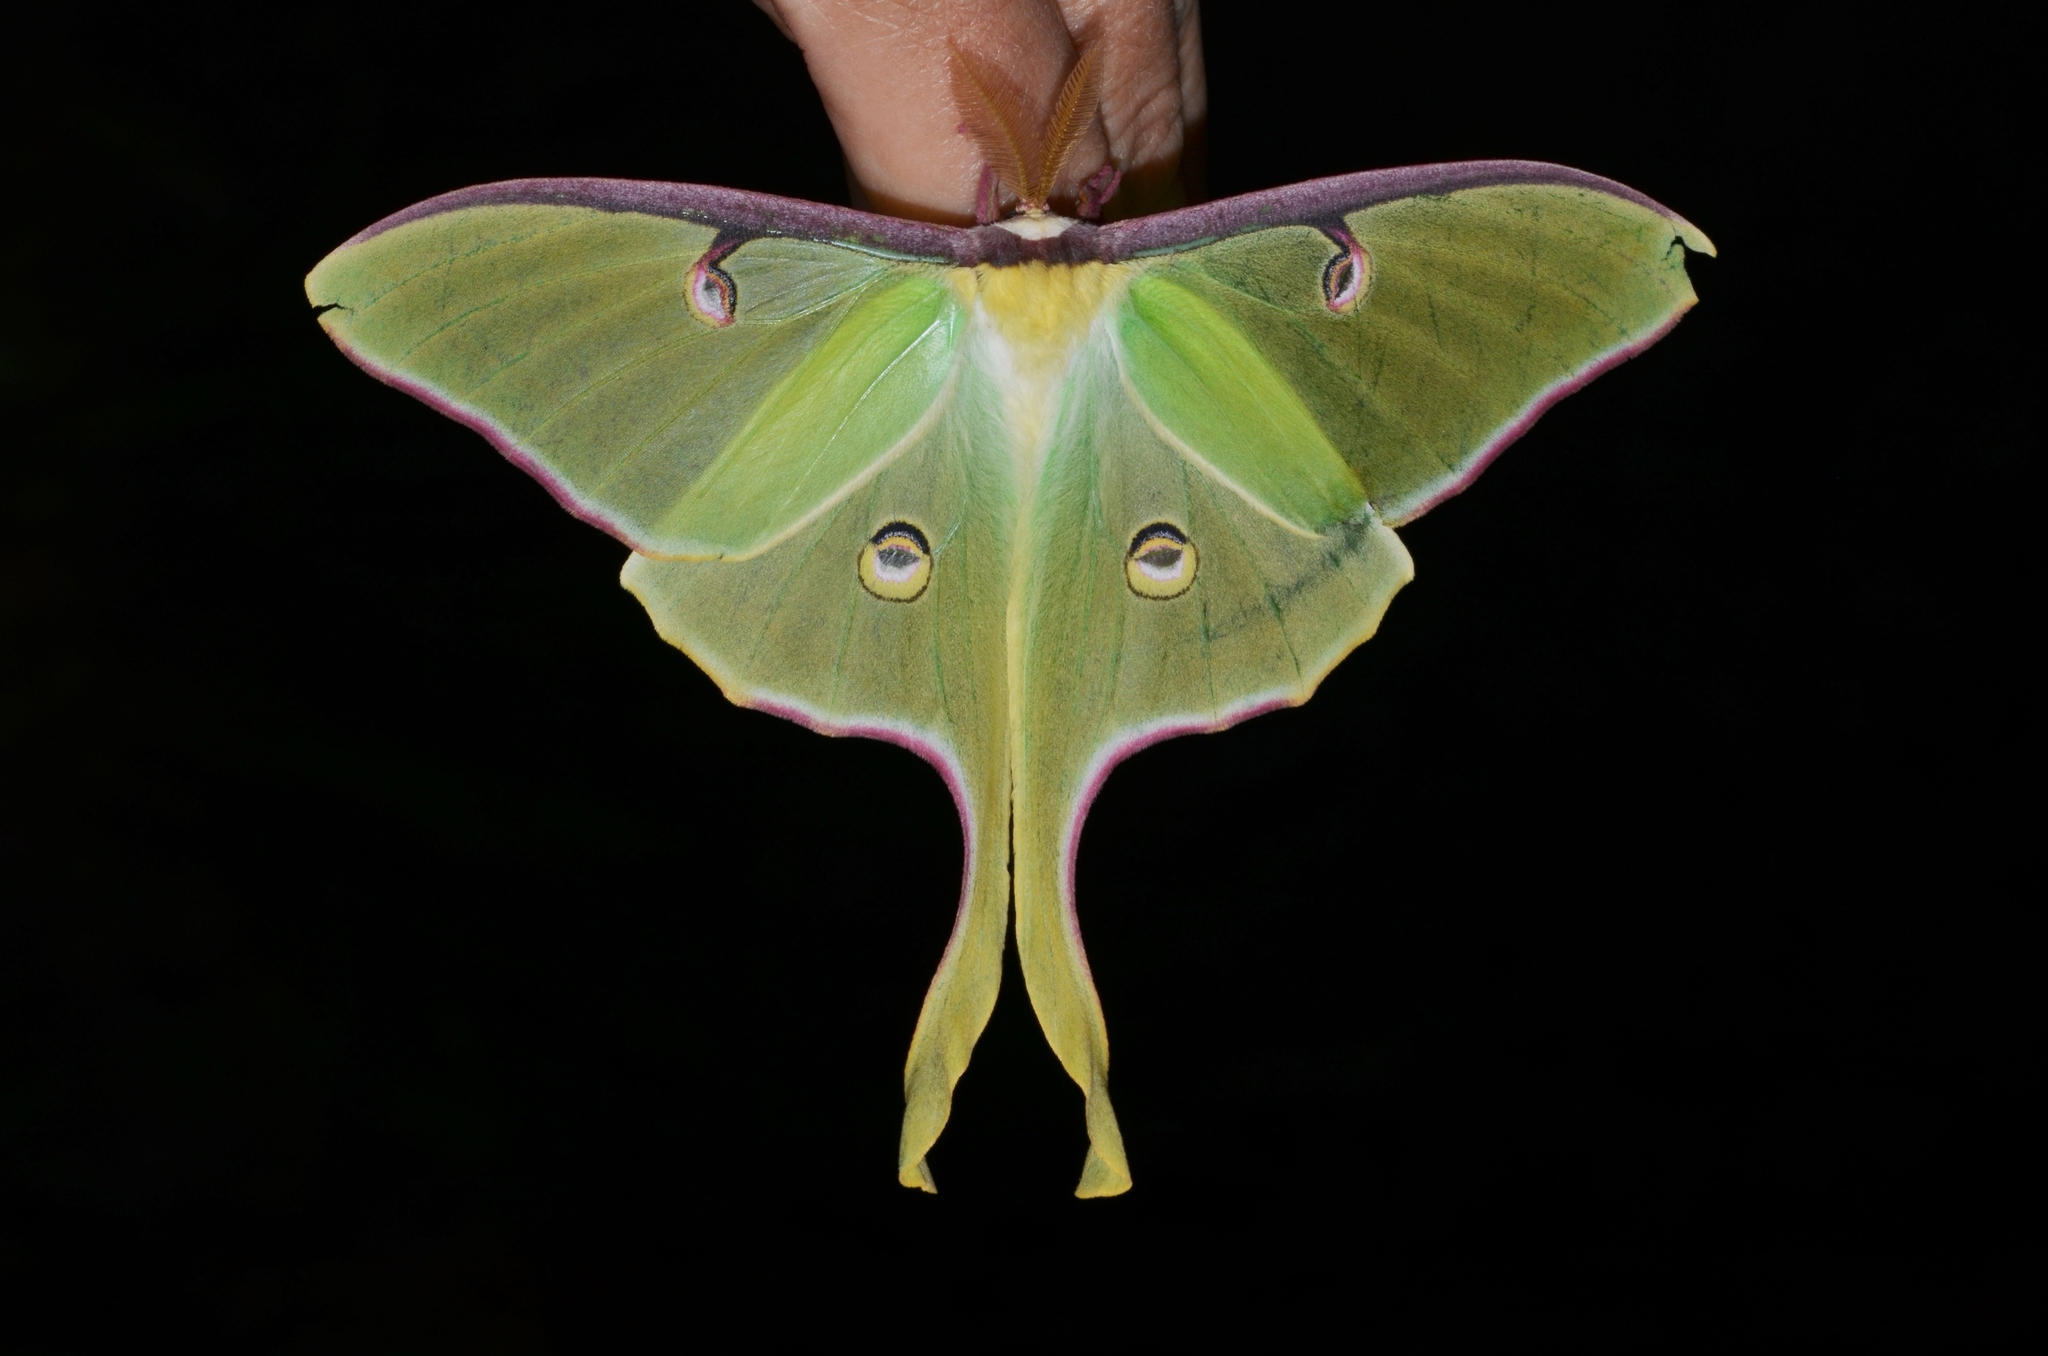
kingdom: Animalia
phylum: Arthropoda
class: Insecta
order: Lepidoptera
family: Saturniidae
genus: Actias
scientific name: Actias luna
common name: Luna moth
